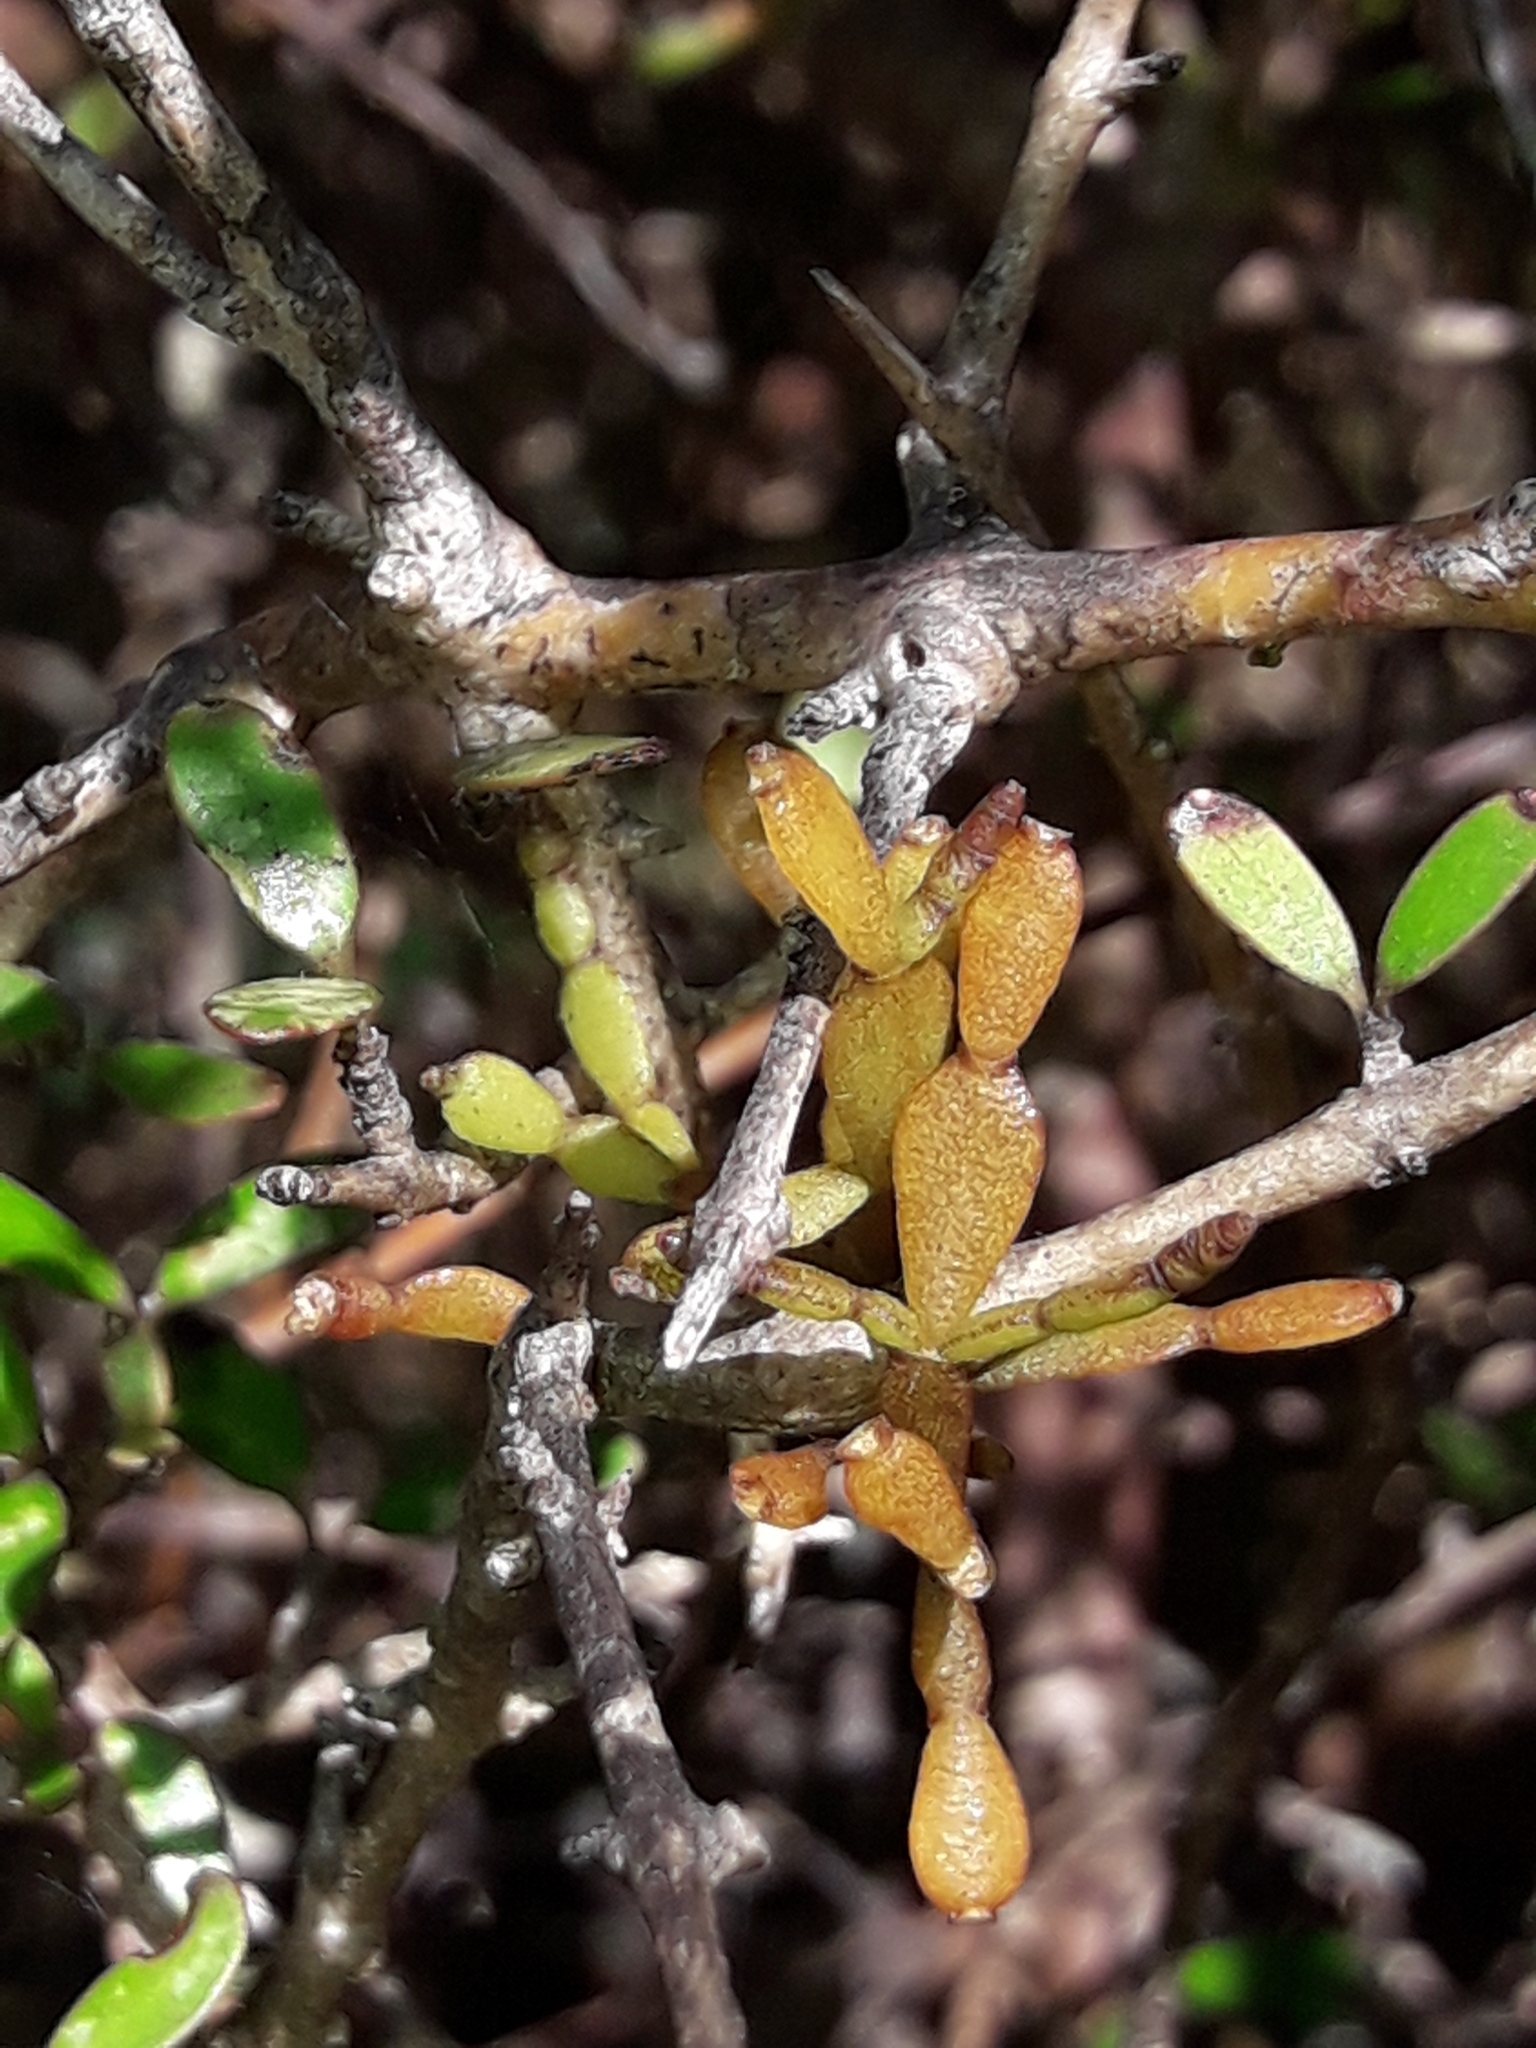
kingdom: Plantae
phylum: Tracheophyta
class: Magnoliopsida
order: Santalales
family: Viscaceae
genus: Korthalsella
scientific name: Korthalsella clavata
